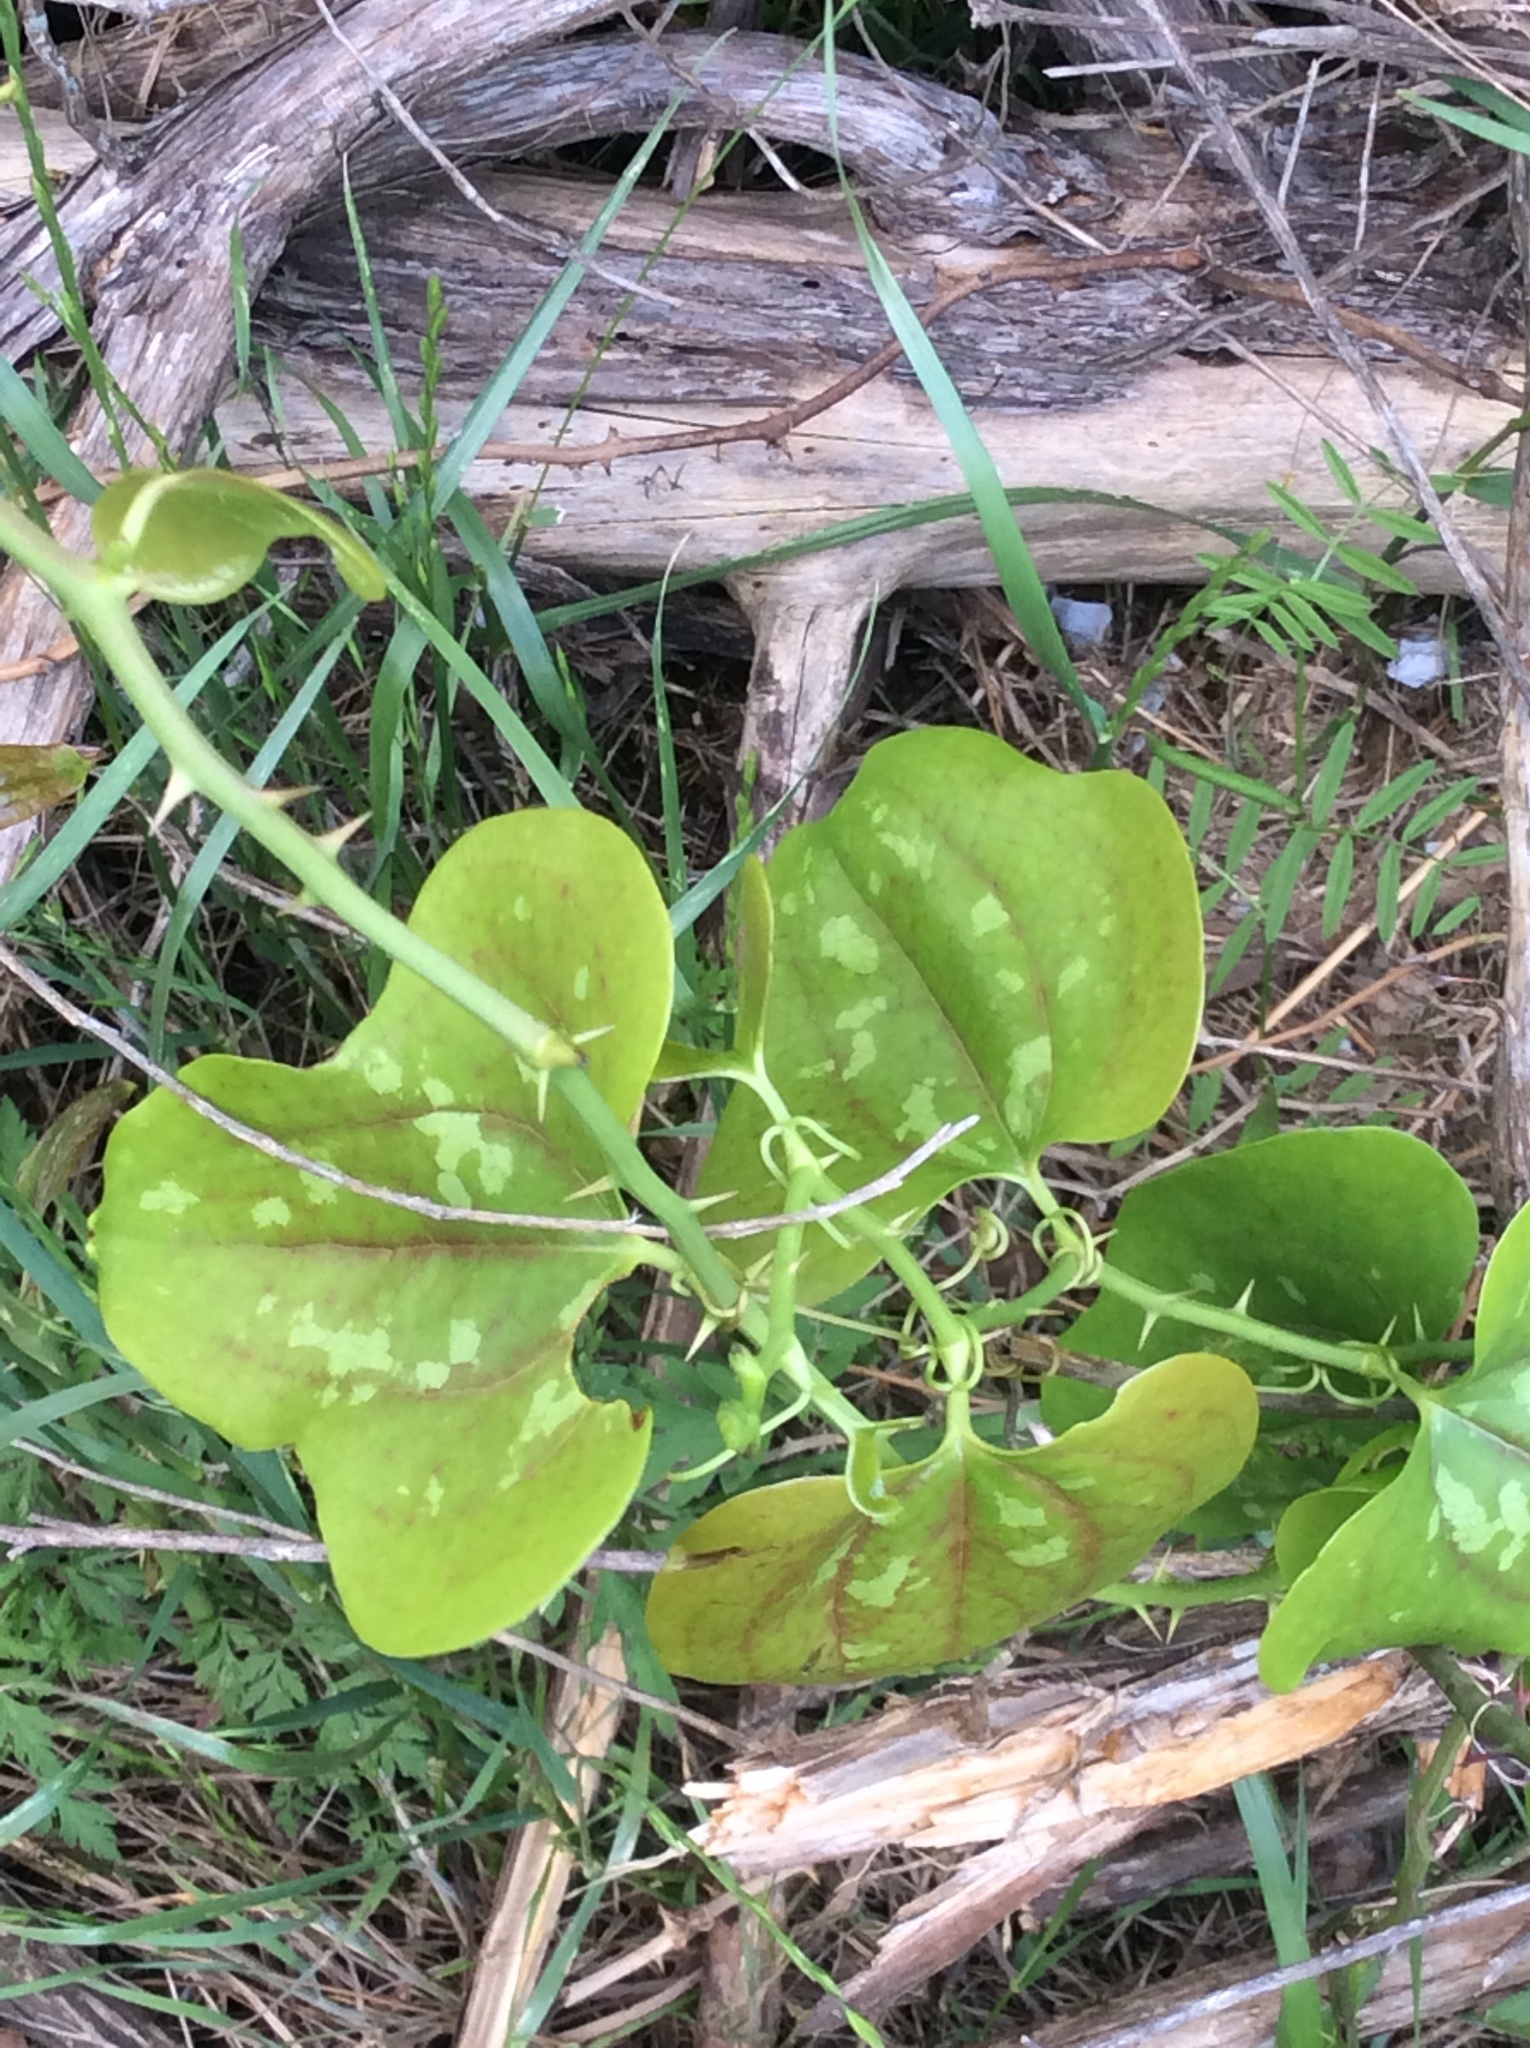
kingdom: Plantae
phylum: Tracheophyta
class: Liliopsida
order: Liliales
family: Smilacaceae
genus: Smilax
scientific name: Smilax bona-nox
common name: Catbrier
